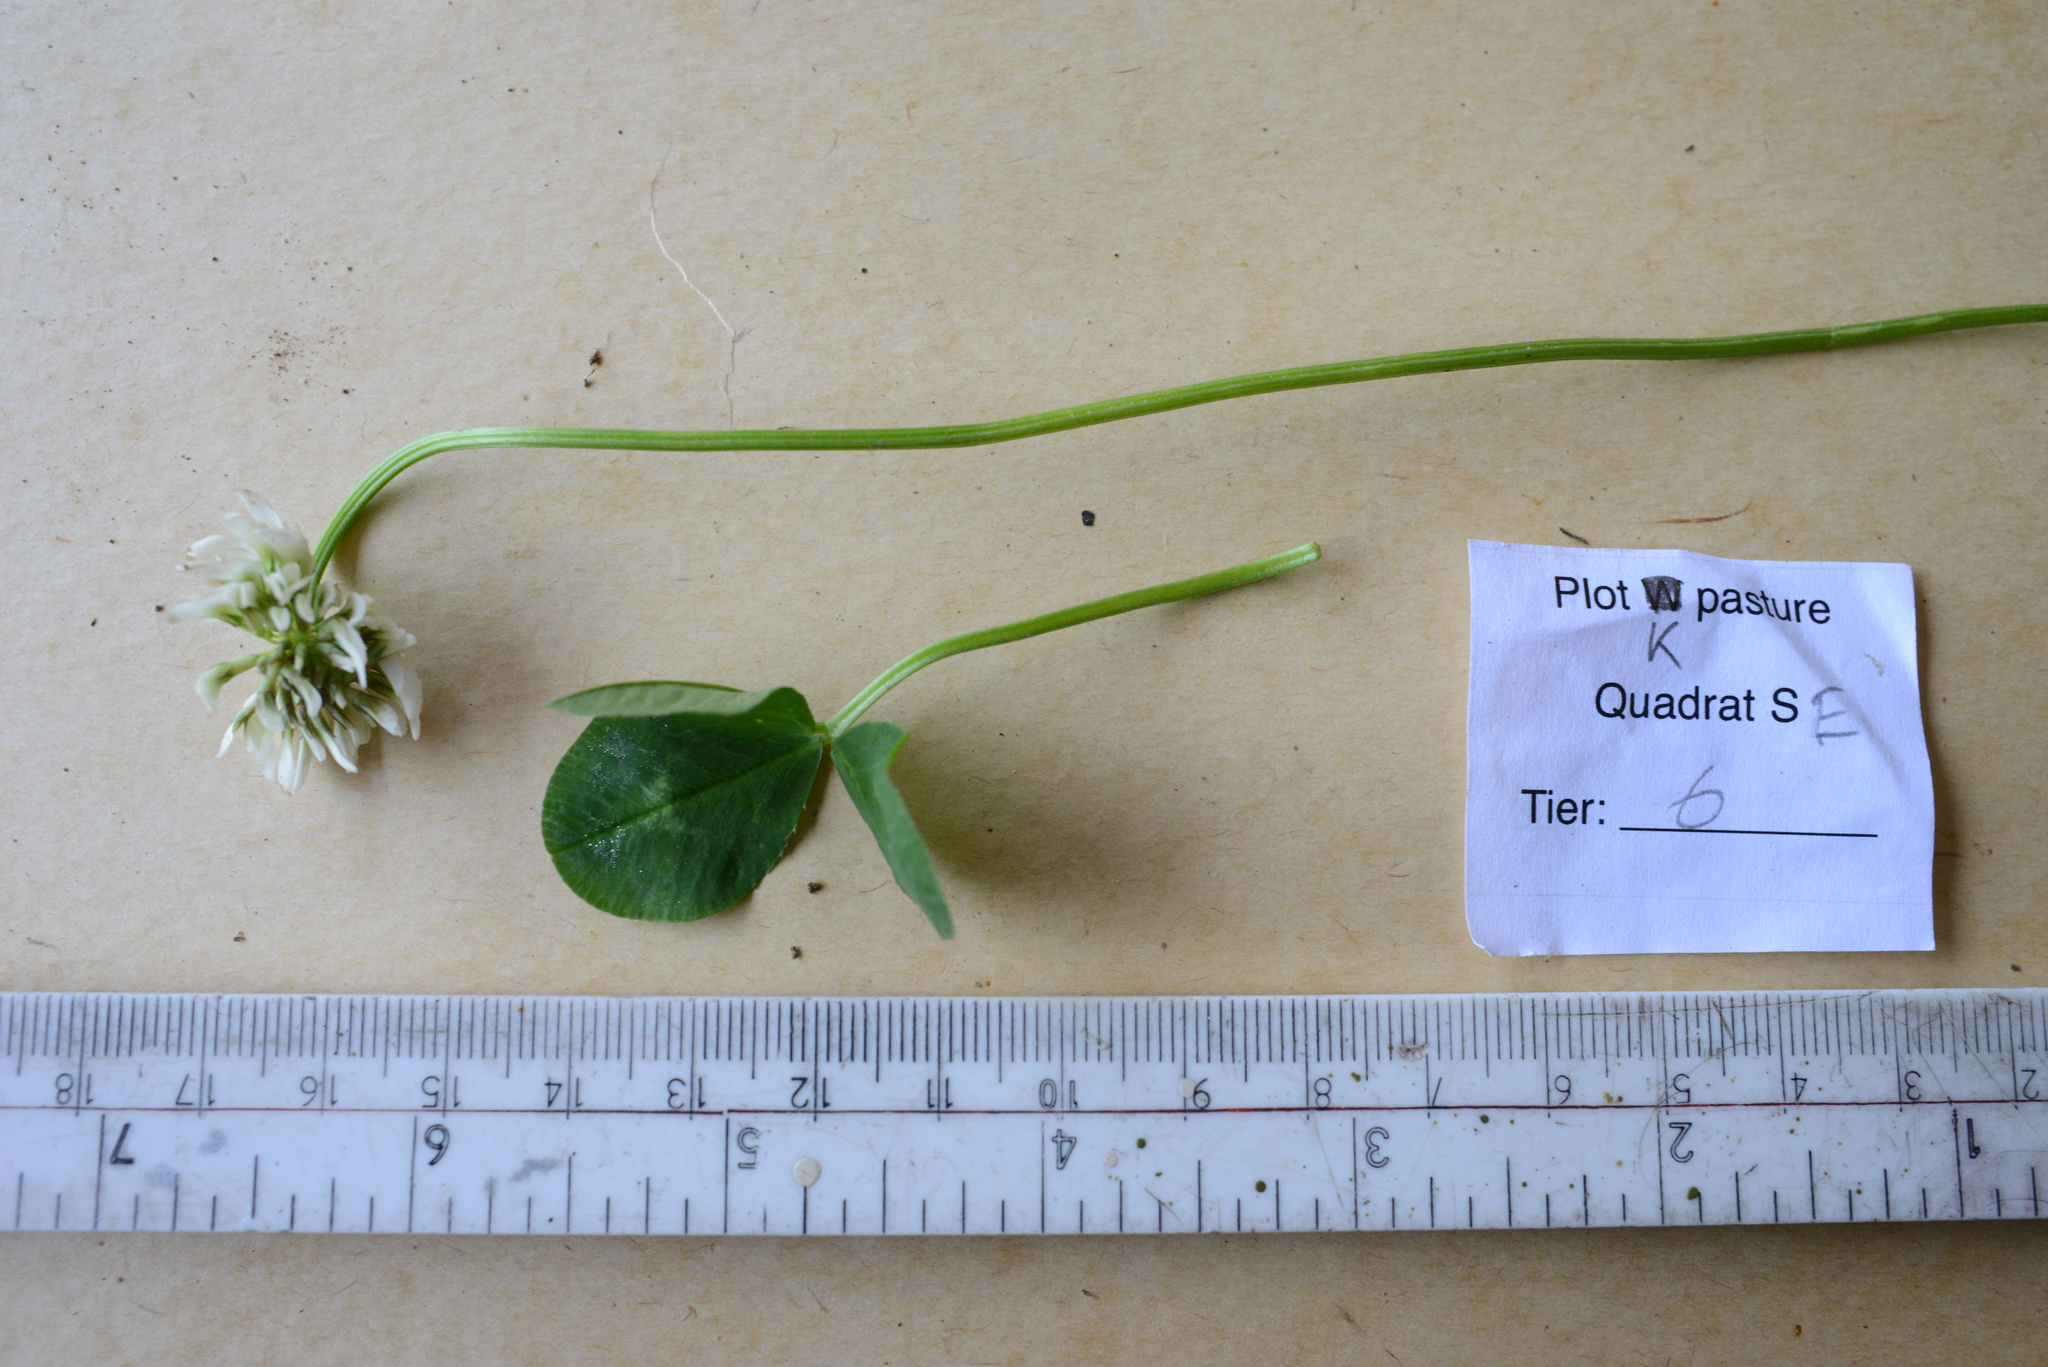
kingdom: Plantae
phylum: Tracheophyta
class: Magnoliopsida
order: Fabales
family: Fabaceae
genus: Trifolium
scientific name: Trifolium repens
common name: White clover
